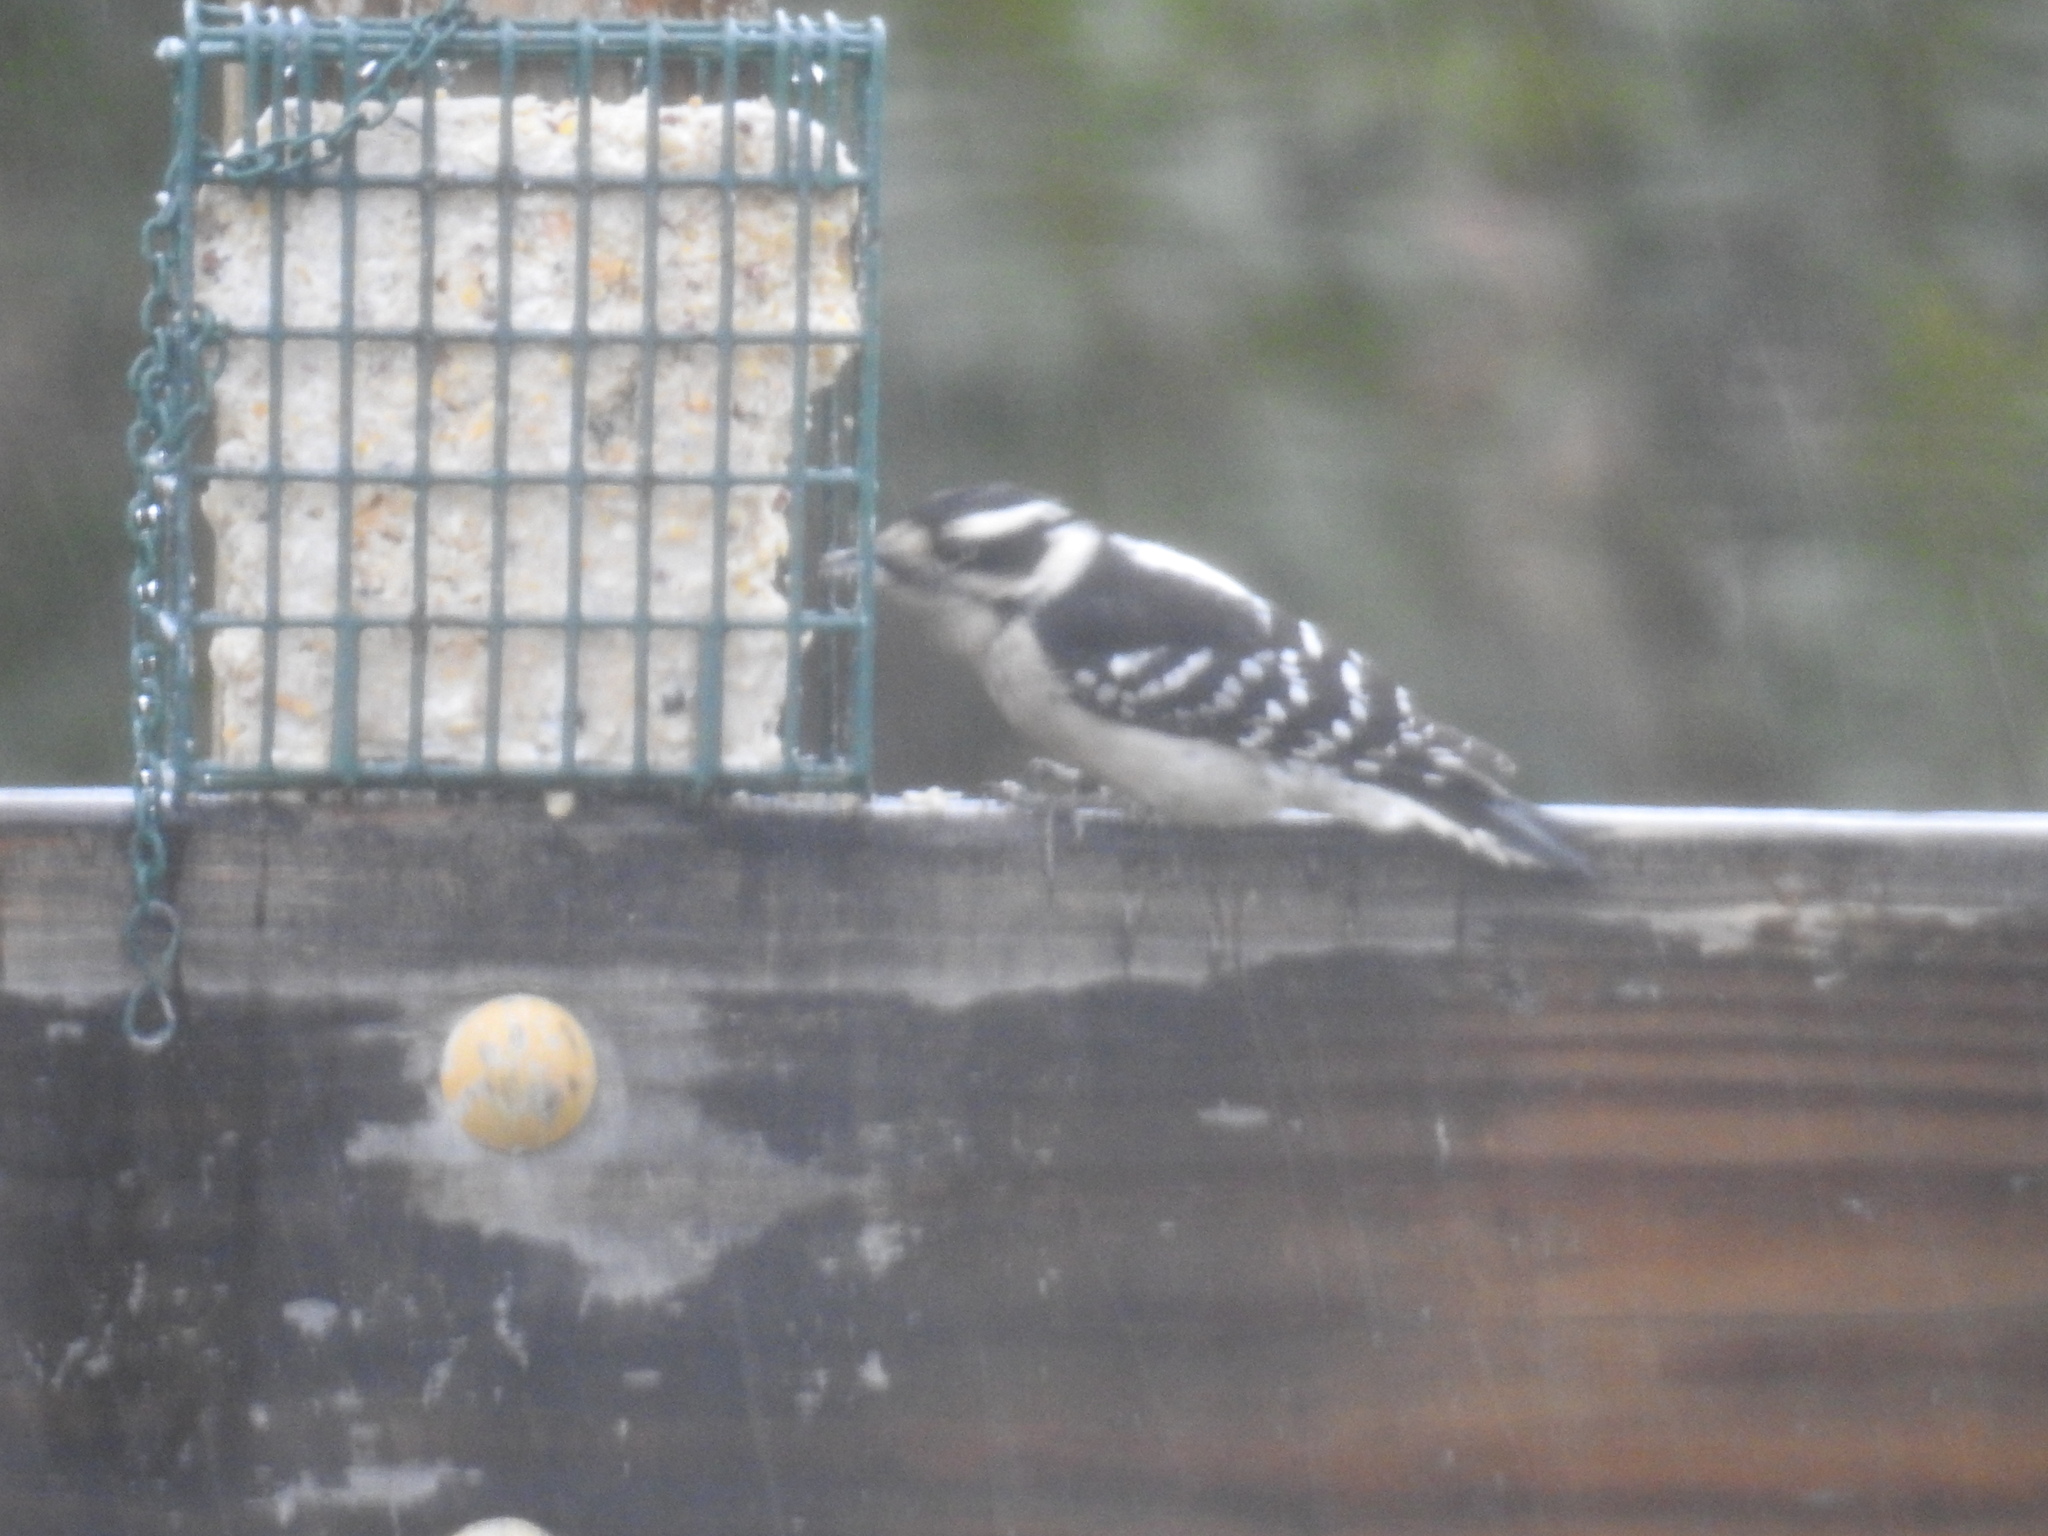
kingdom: Animalia
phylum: Chordata
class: Aves
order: Piciformes
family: Picidae
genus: Dryobates
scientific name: Dryobates pubescens
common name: Downy woodpecker
